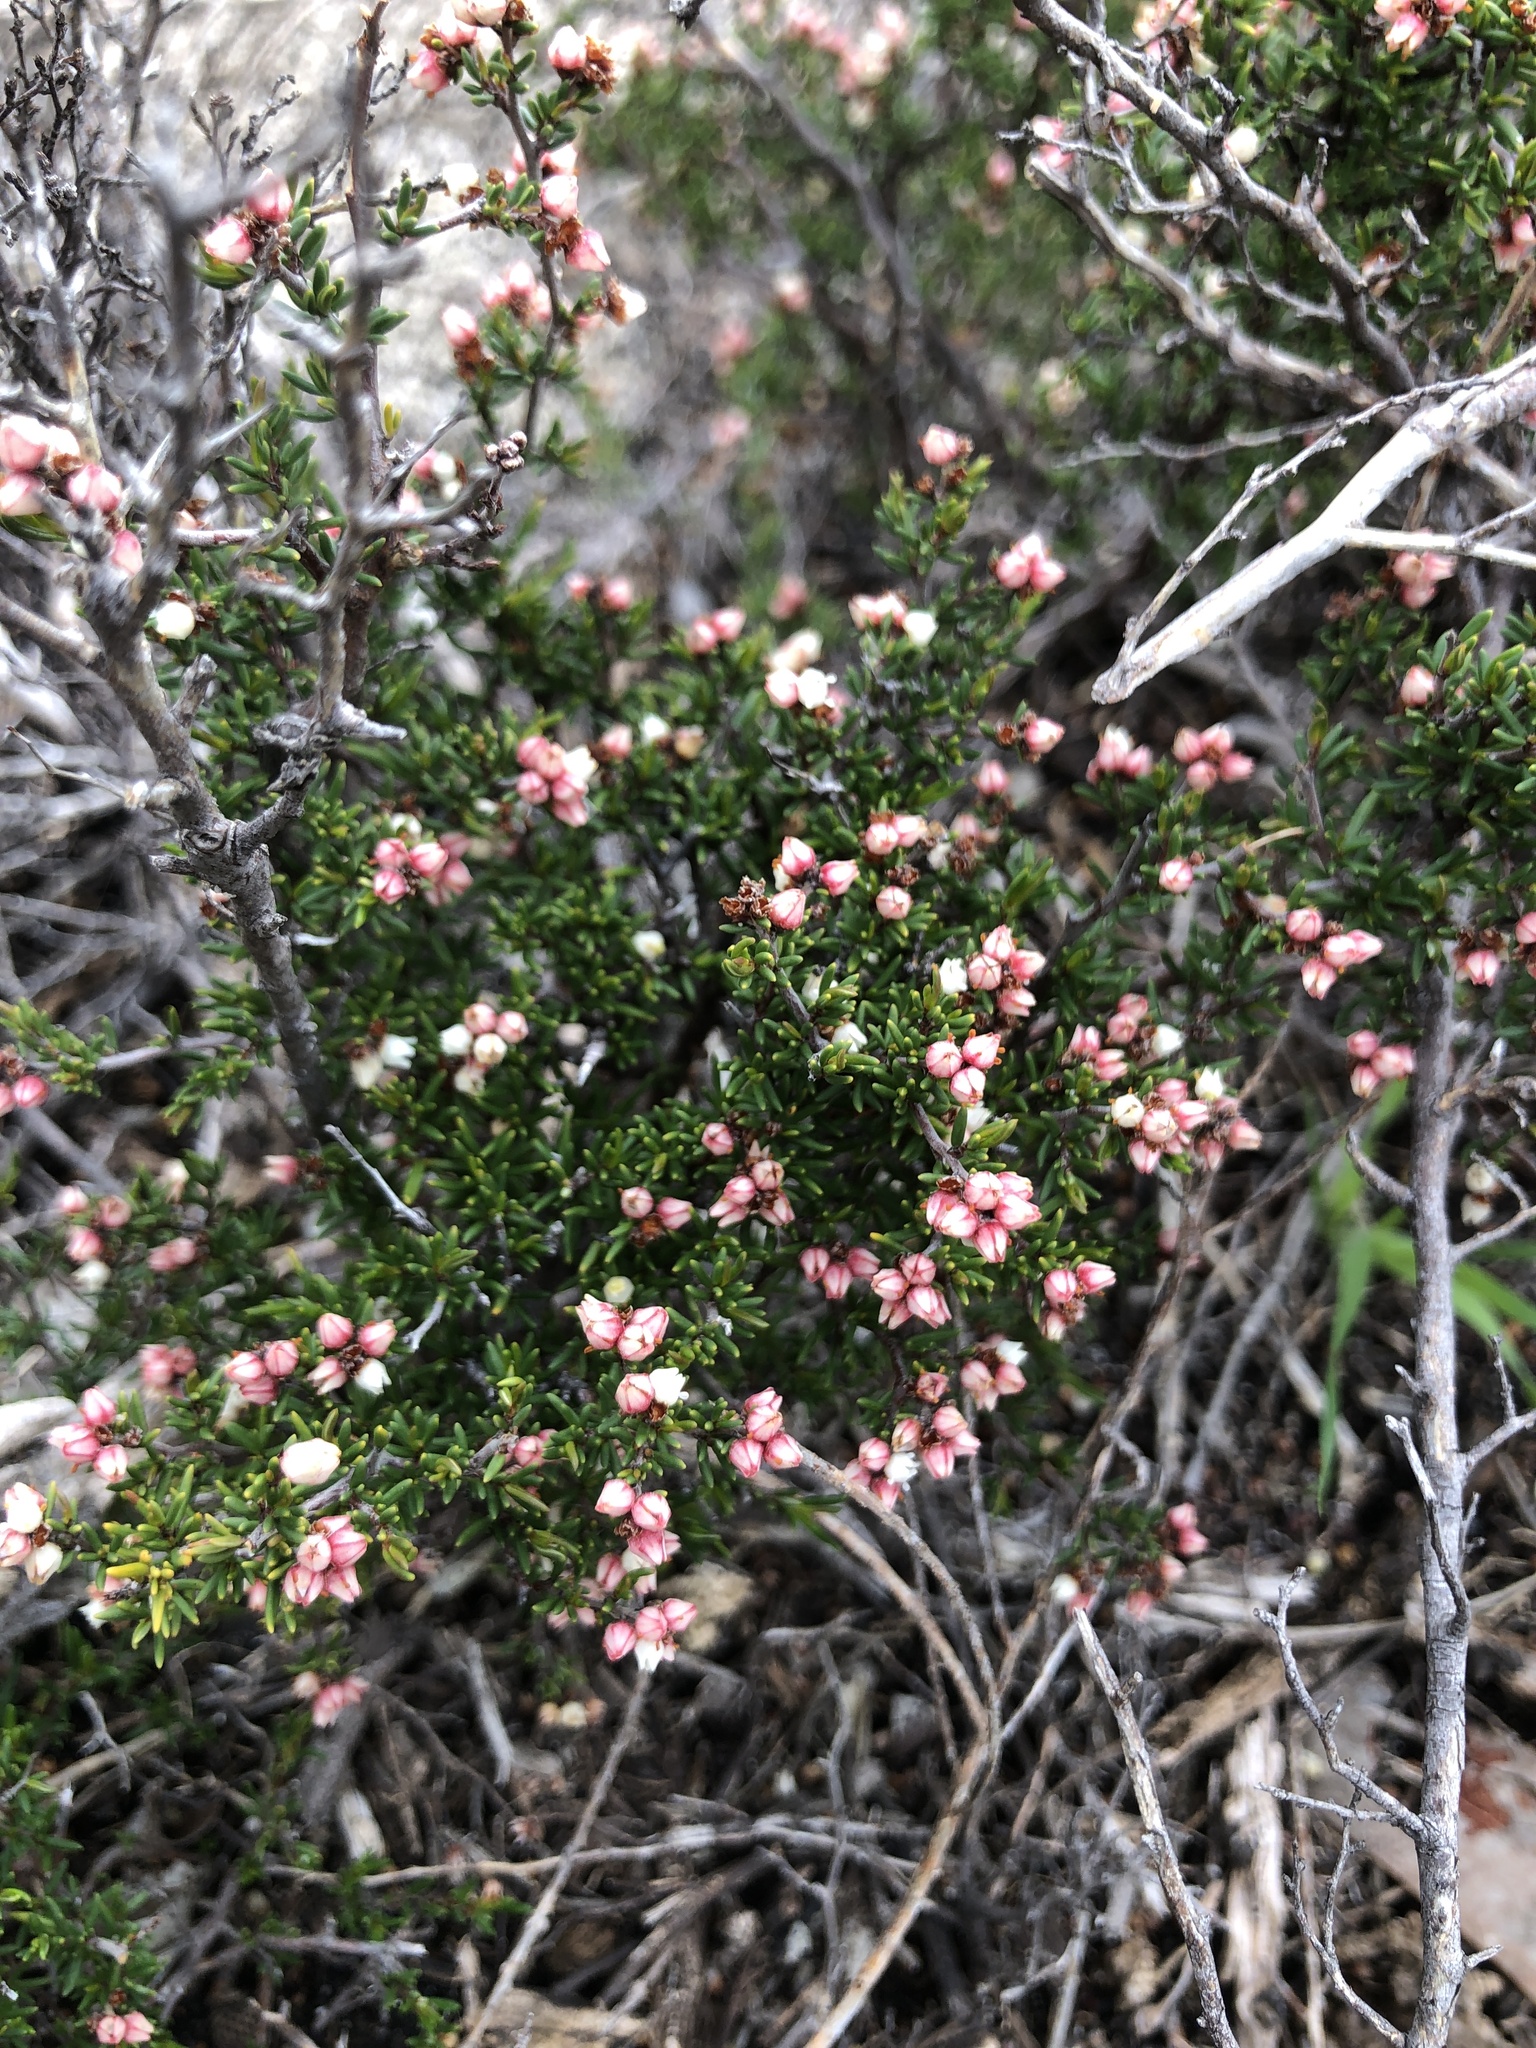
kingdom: Plantae
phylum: Tracheophyta
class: Magnoliopsida
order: Rosales
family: Rhamnaceae
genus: Cryptandra
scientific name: Cryptandra tomentosa
